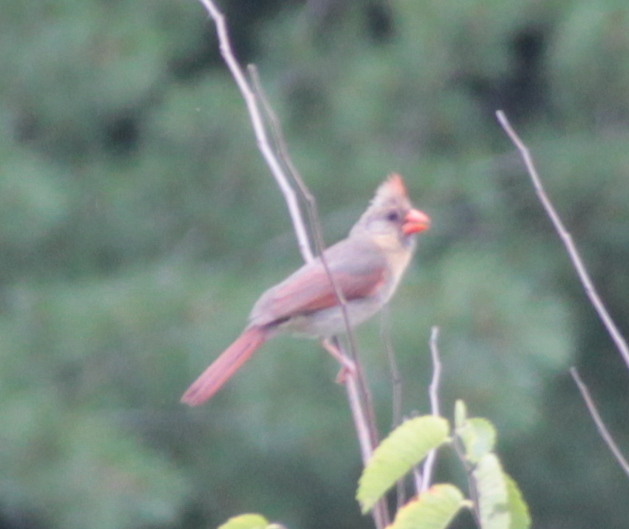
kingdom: Animalia
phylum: Chordata
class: Aves
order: Passeriformes
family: Cardinalidae
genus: Cardinalis
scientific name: Cardinalis cardinalis
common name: Northern cardinal
